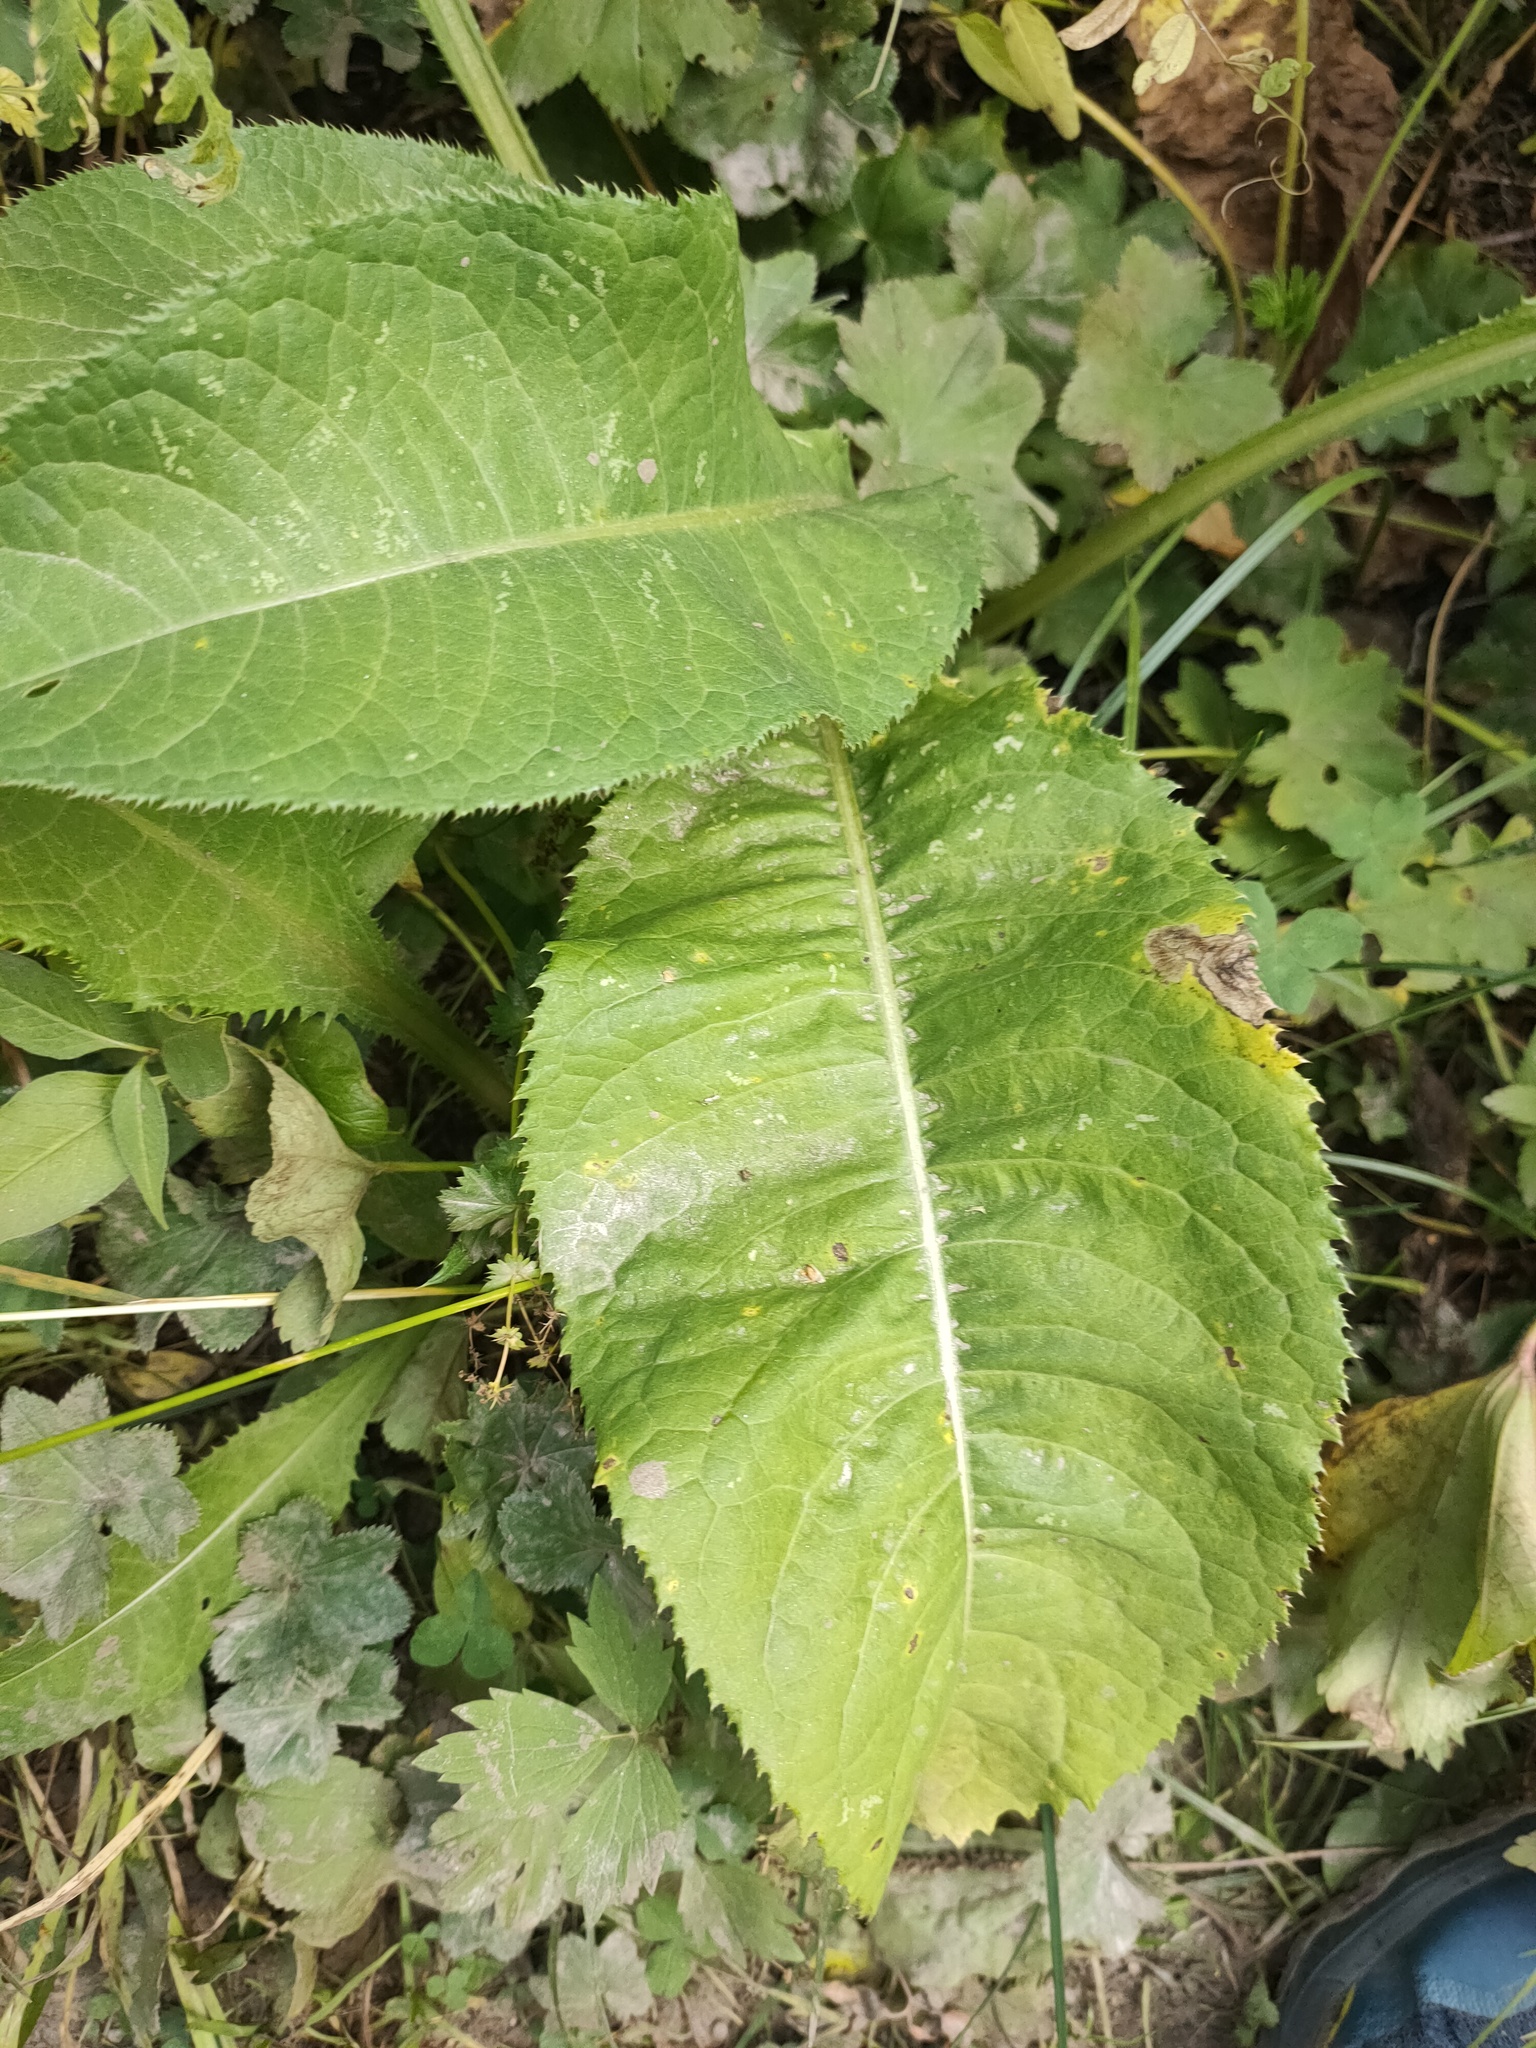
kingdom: Plantae
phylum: Tracheophyta
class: Magnoliopsida
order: Asterales
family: Asteraceae
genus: Inula
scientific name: Inula helenium
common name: Elecampane
